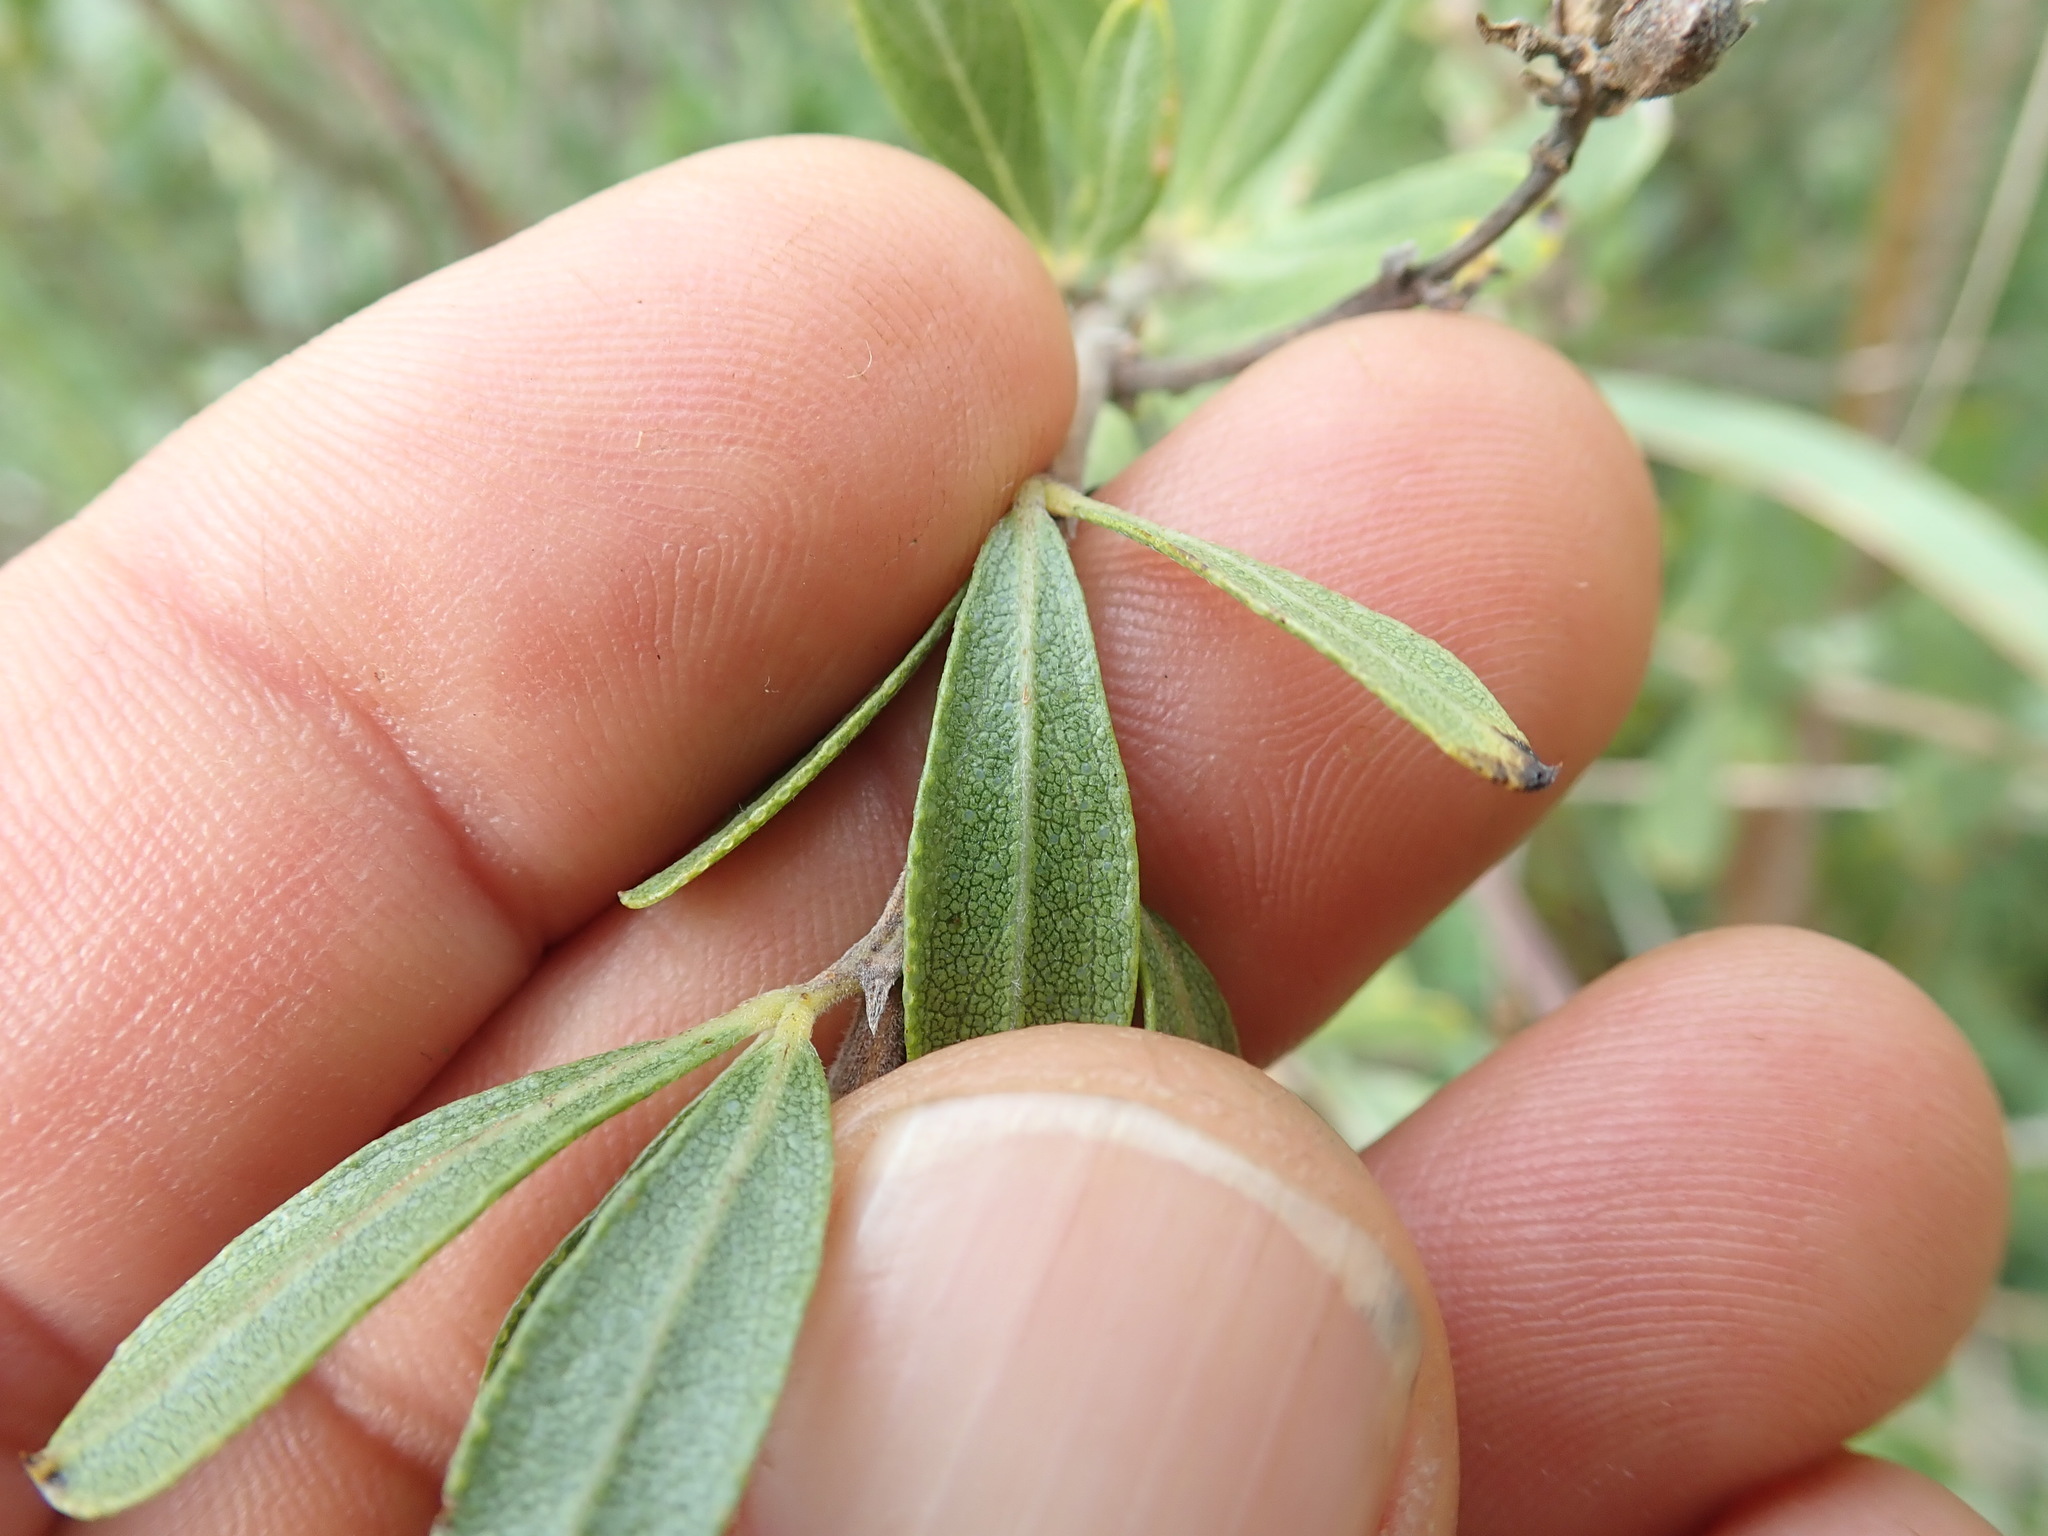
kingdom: Plantae
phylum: Tracheophyta
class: Magnoliopsida
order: Fabales
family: Fabaceae
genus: Psoralea
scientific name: Psoralea wilmsii
